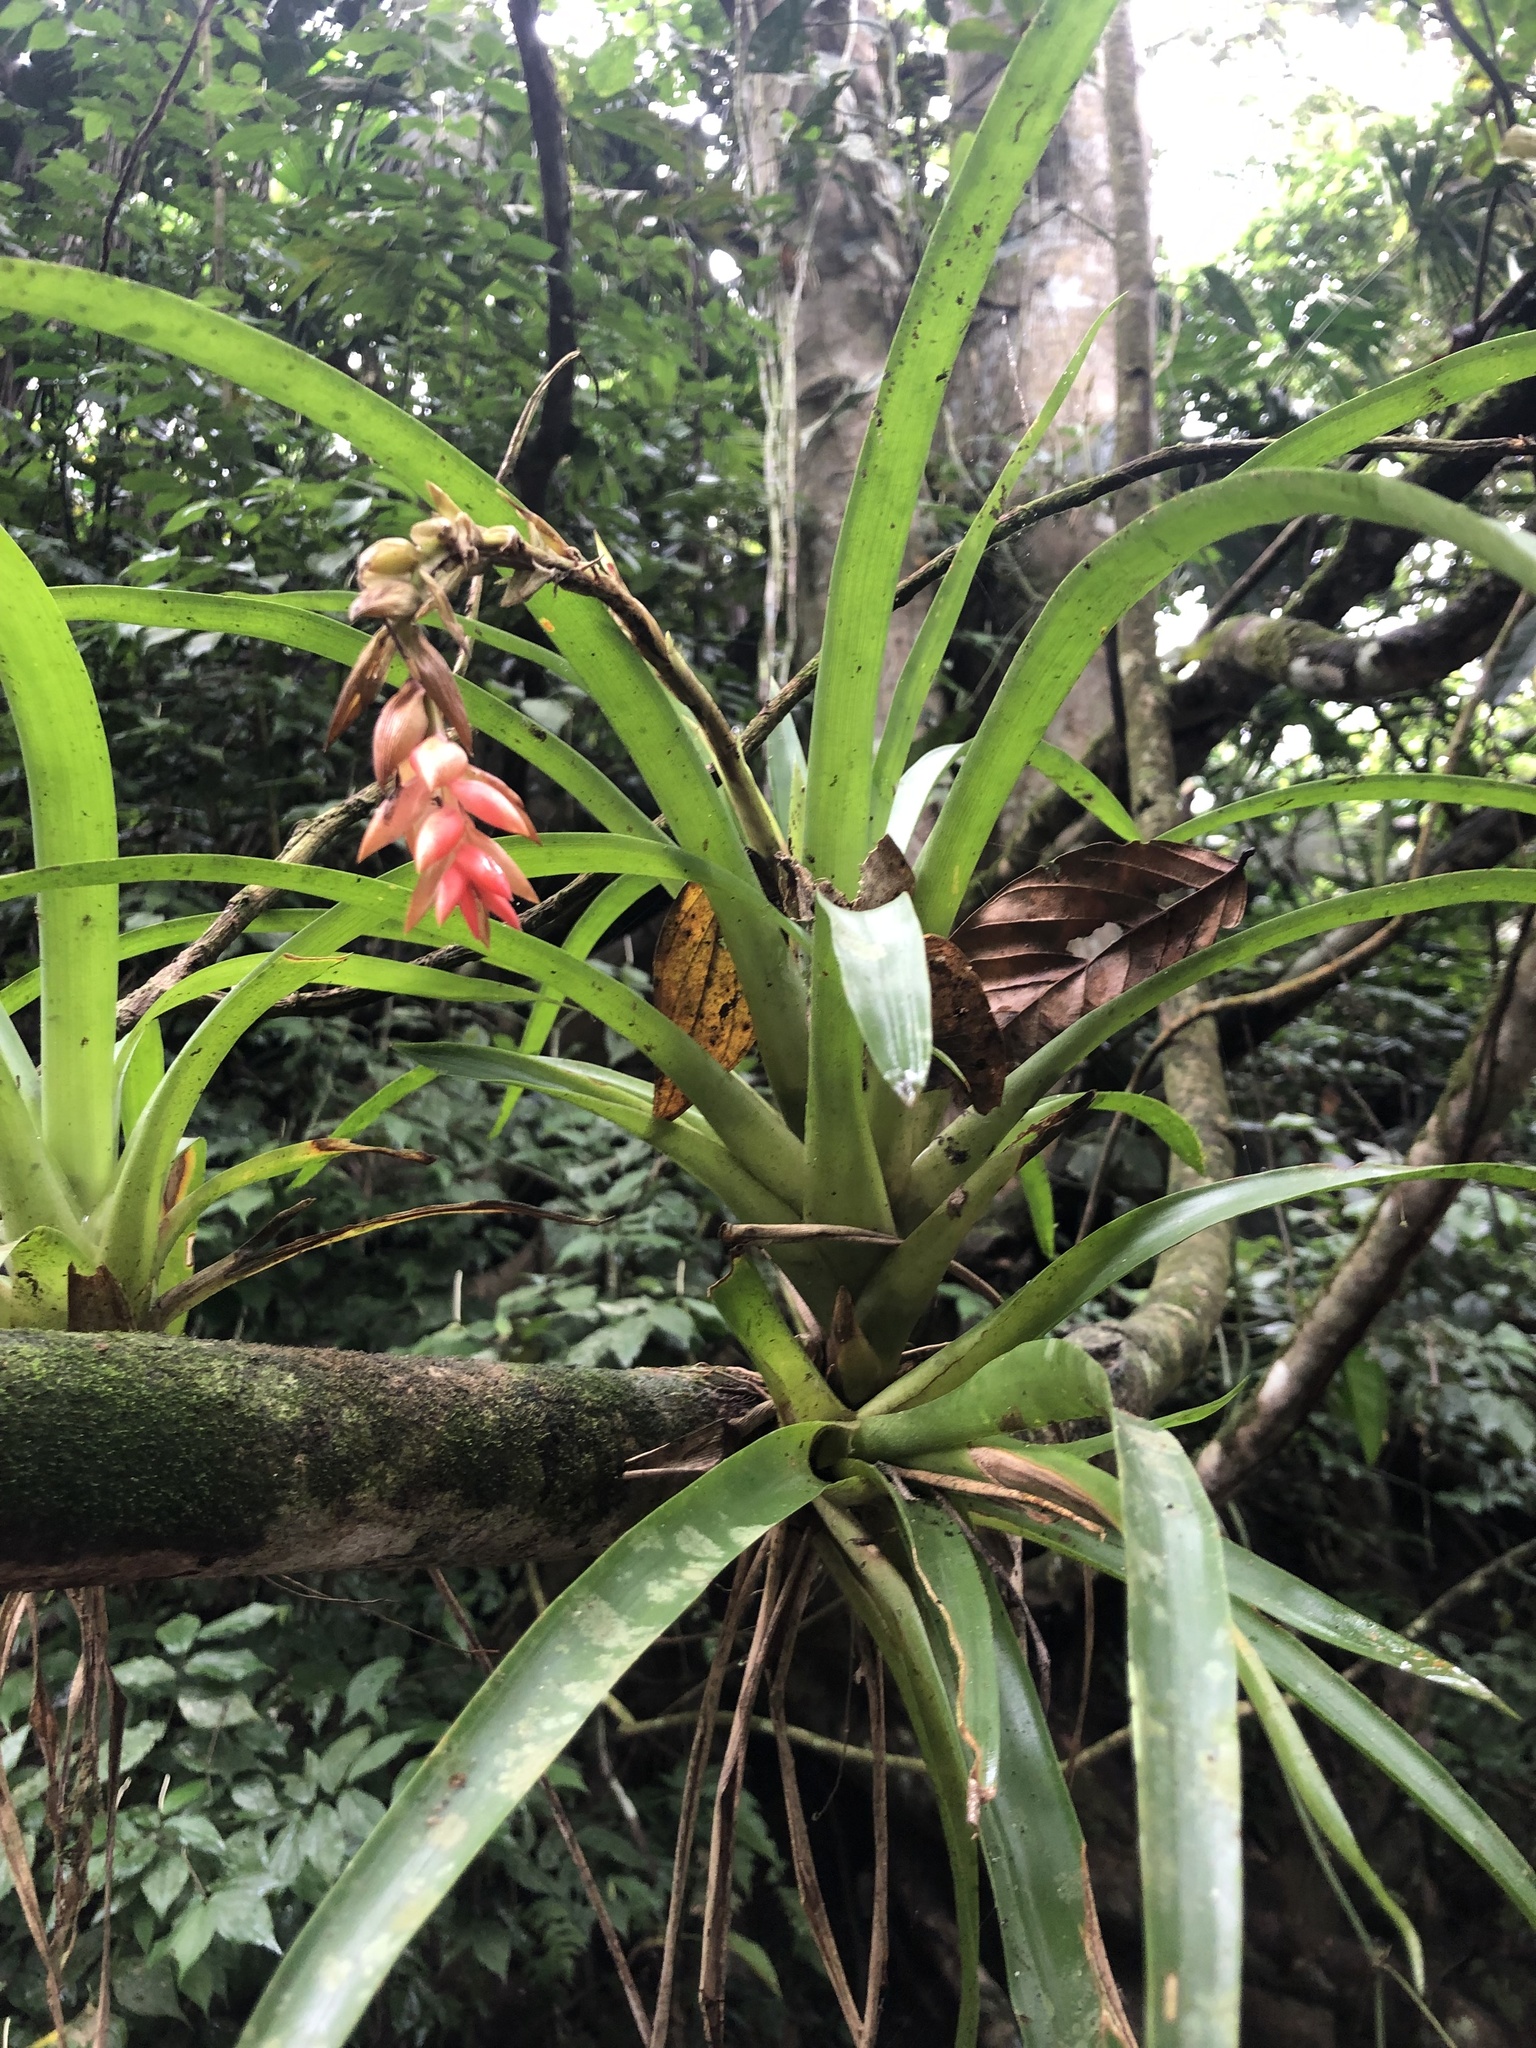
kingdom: Plantae
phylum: Tracheophyta
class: Liliopsida
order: Poales
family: Bromeliaceae
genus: Guzmania
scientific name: Guzmania monostachia
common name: West indian tufted airplant
